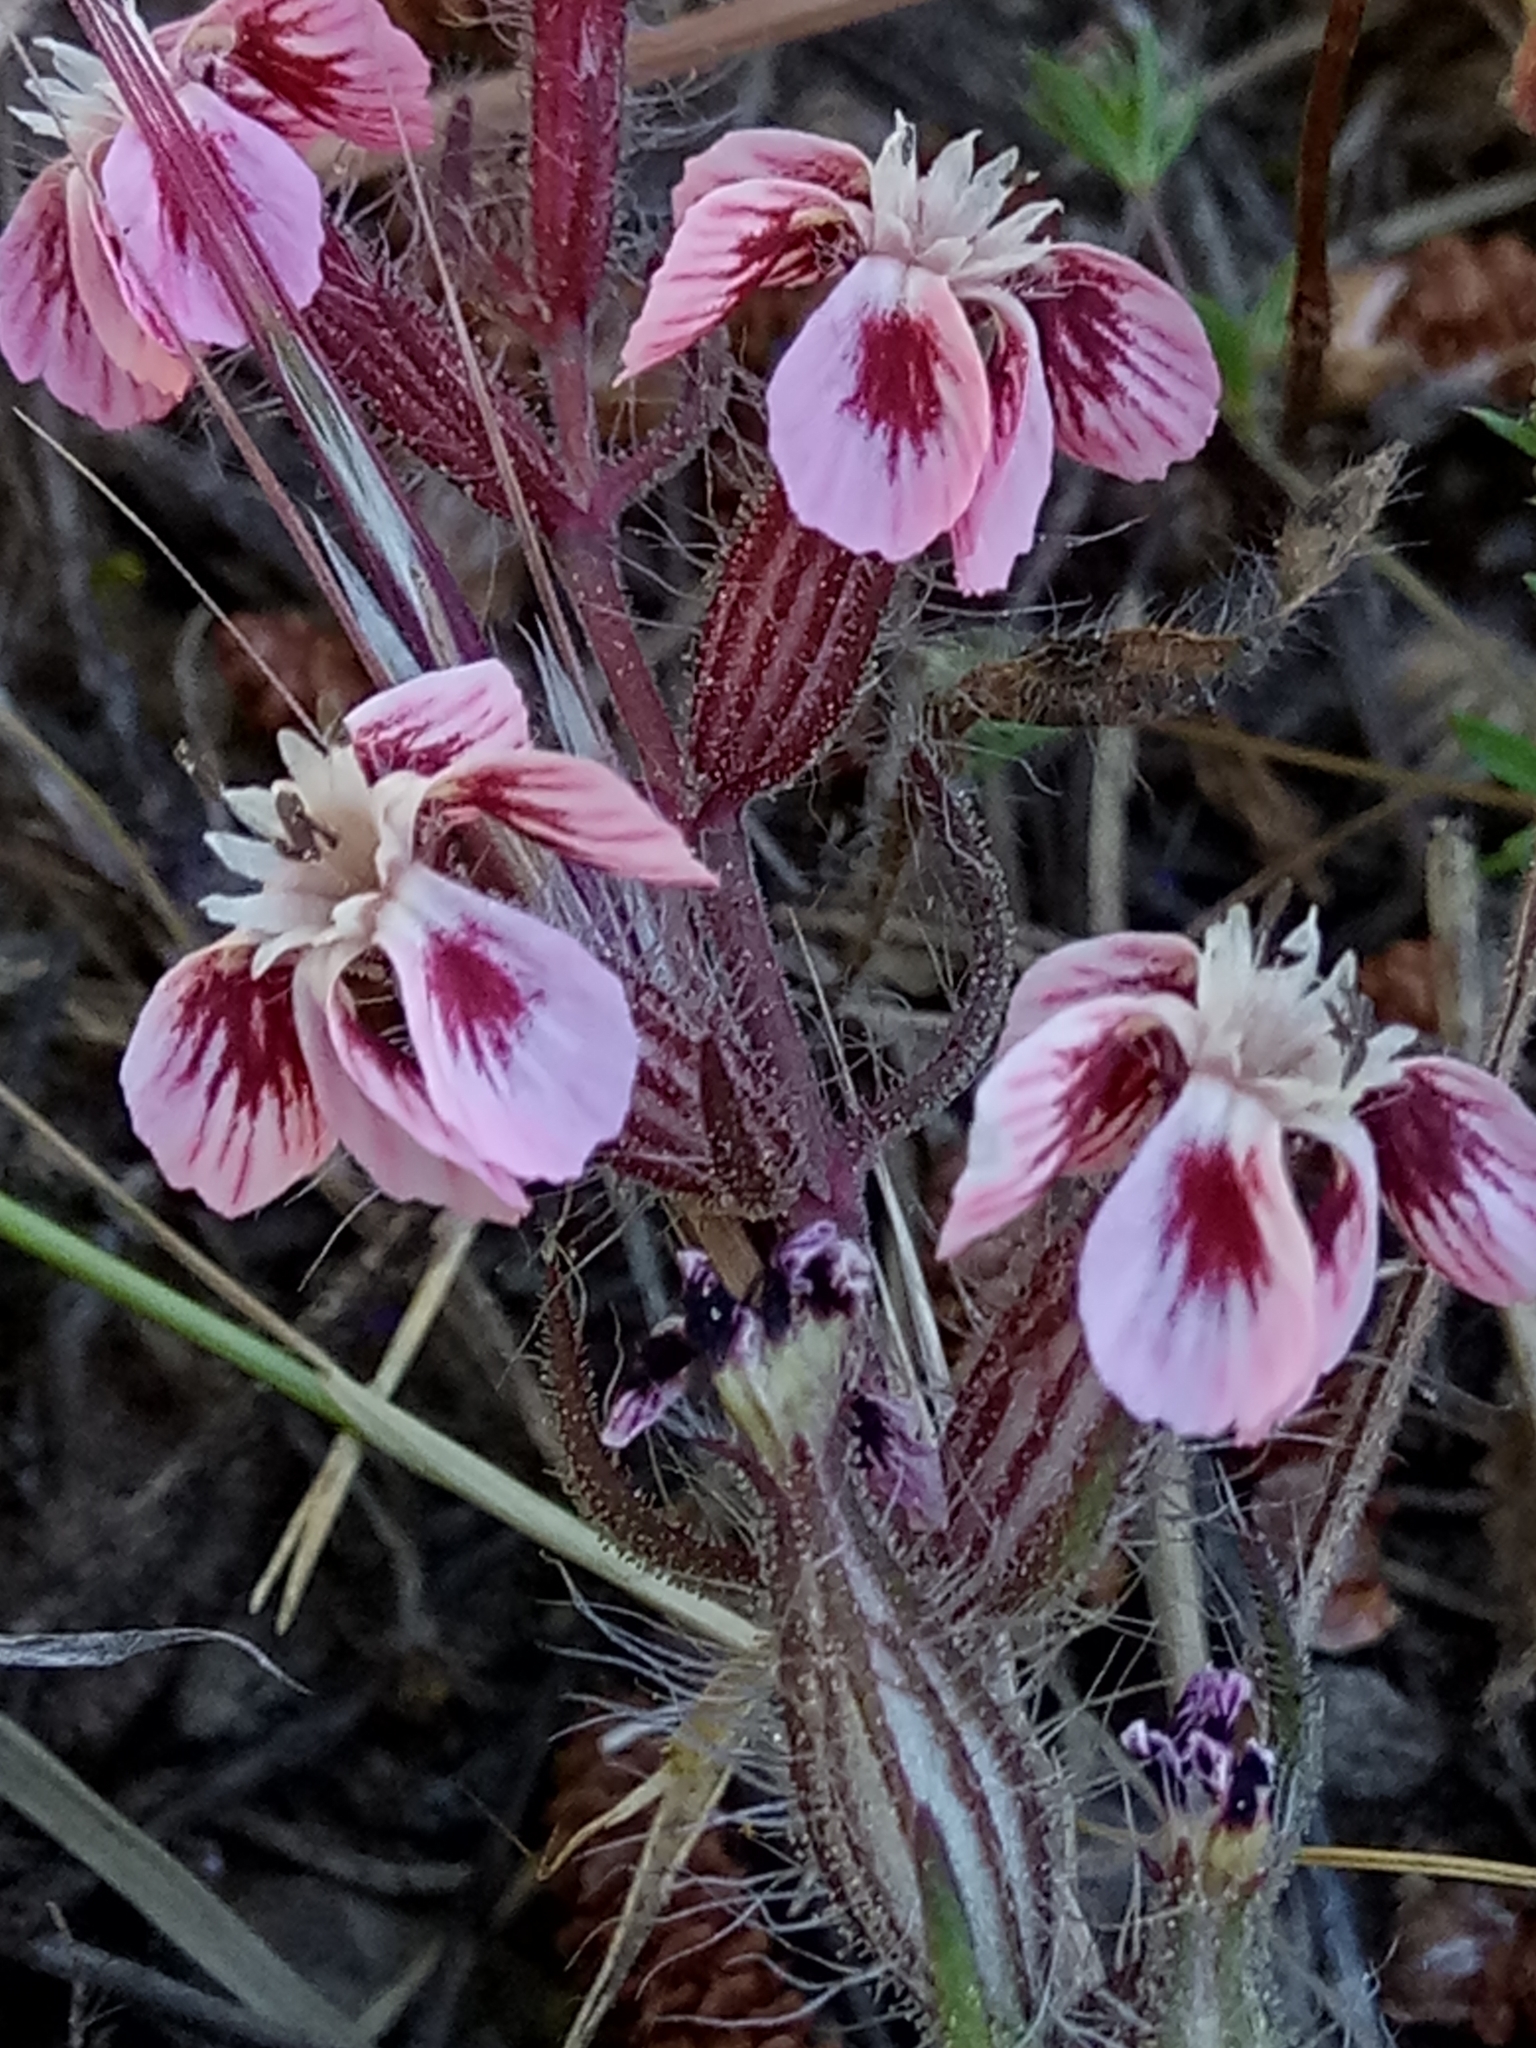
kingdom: Plantae
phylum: Tracheophyta
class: Magnoliopsida
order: Caryophyllales
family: Caryophyllaceae
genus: Silene
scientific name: Silene gallica
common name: Small-flowered catchfly
